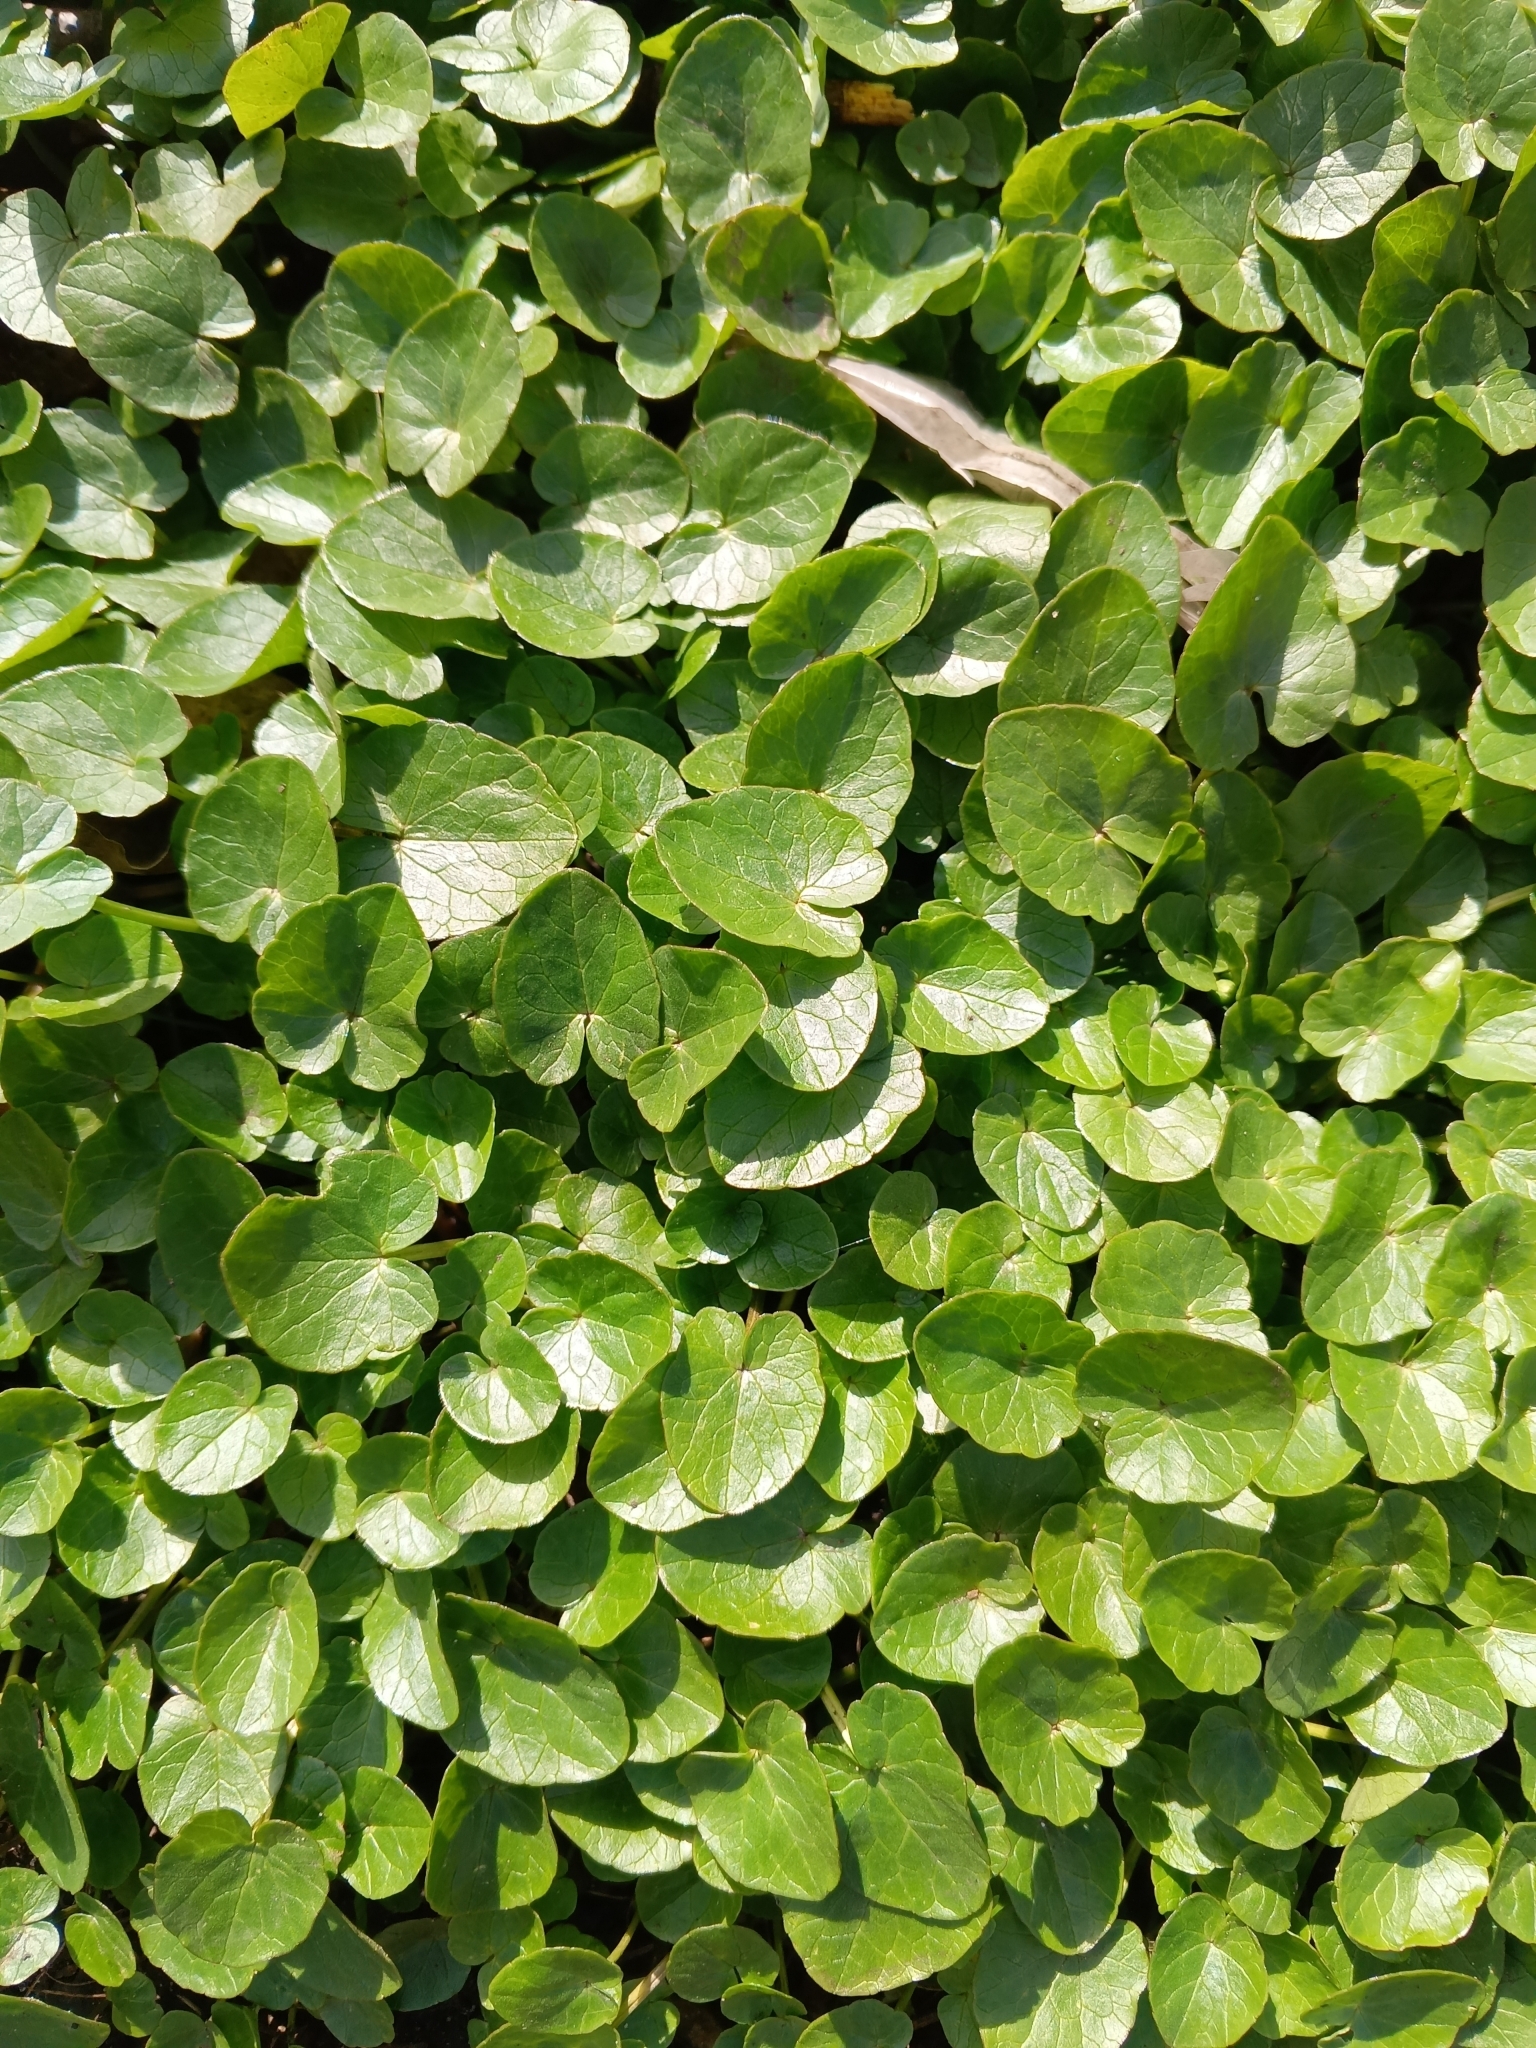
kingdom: Plantae
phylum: Tracheophyta
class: Magnoliopsida
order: Ranunculales
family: Ranunculaceae
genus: Ficaria
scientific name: Ficaria verna
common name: Lesser celandine
